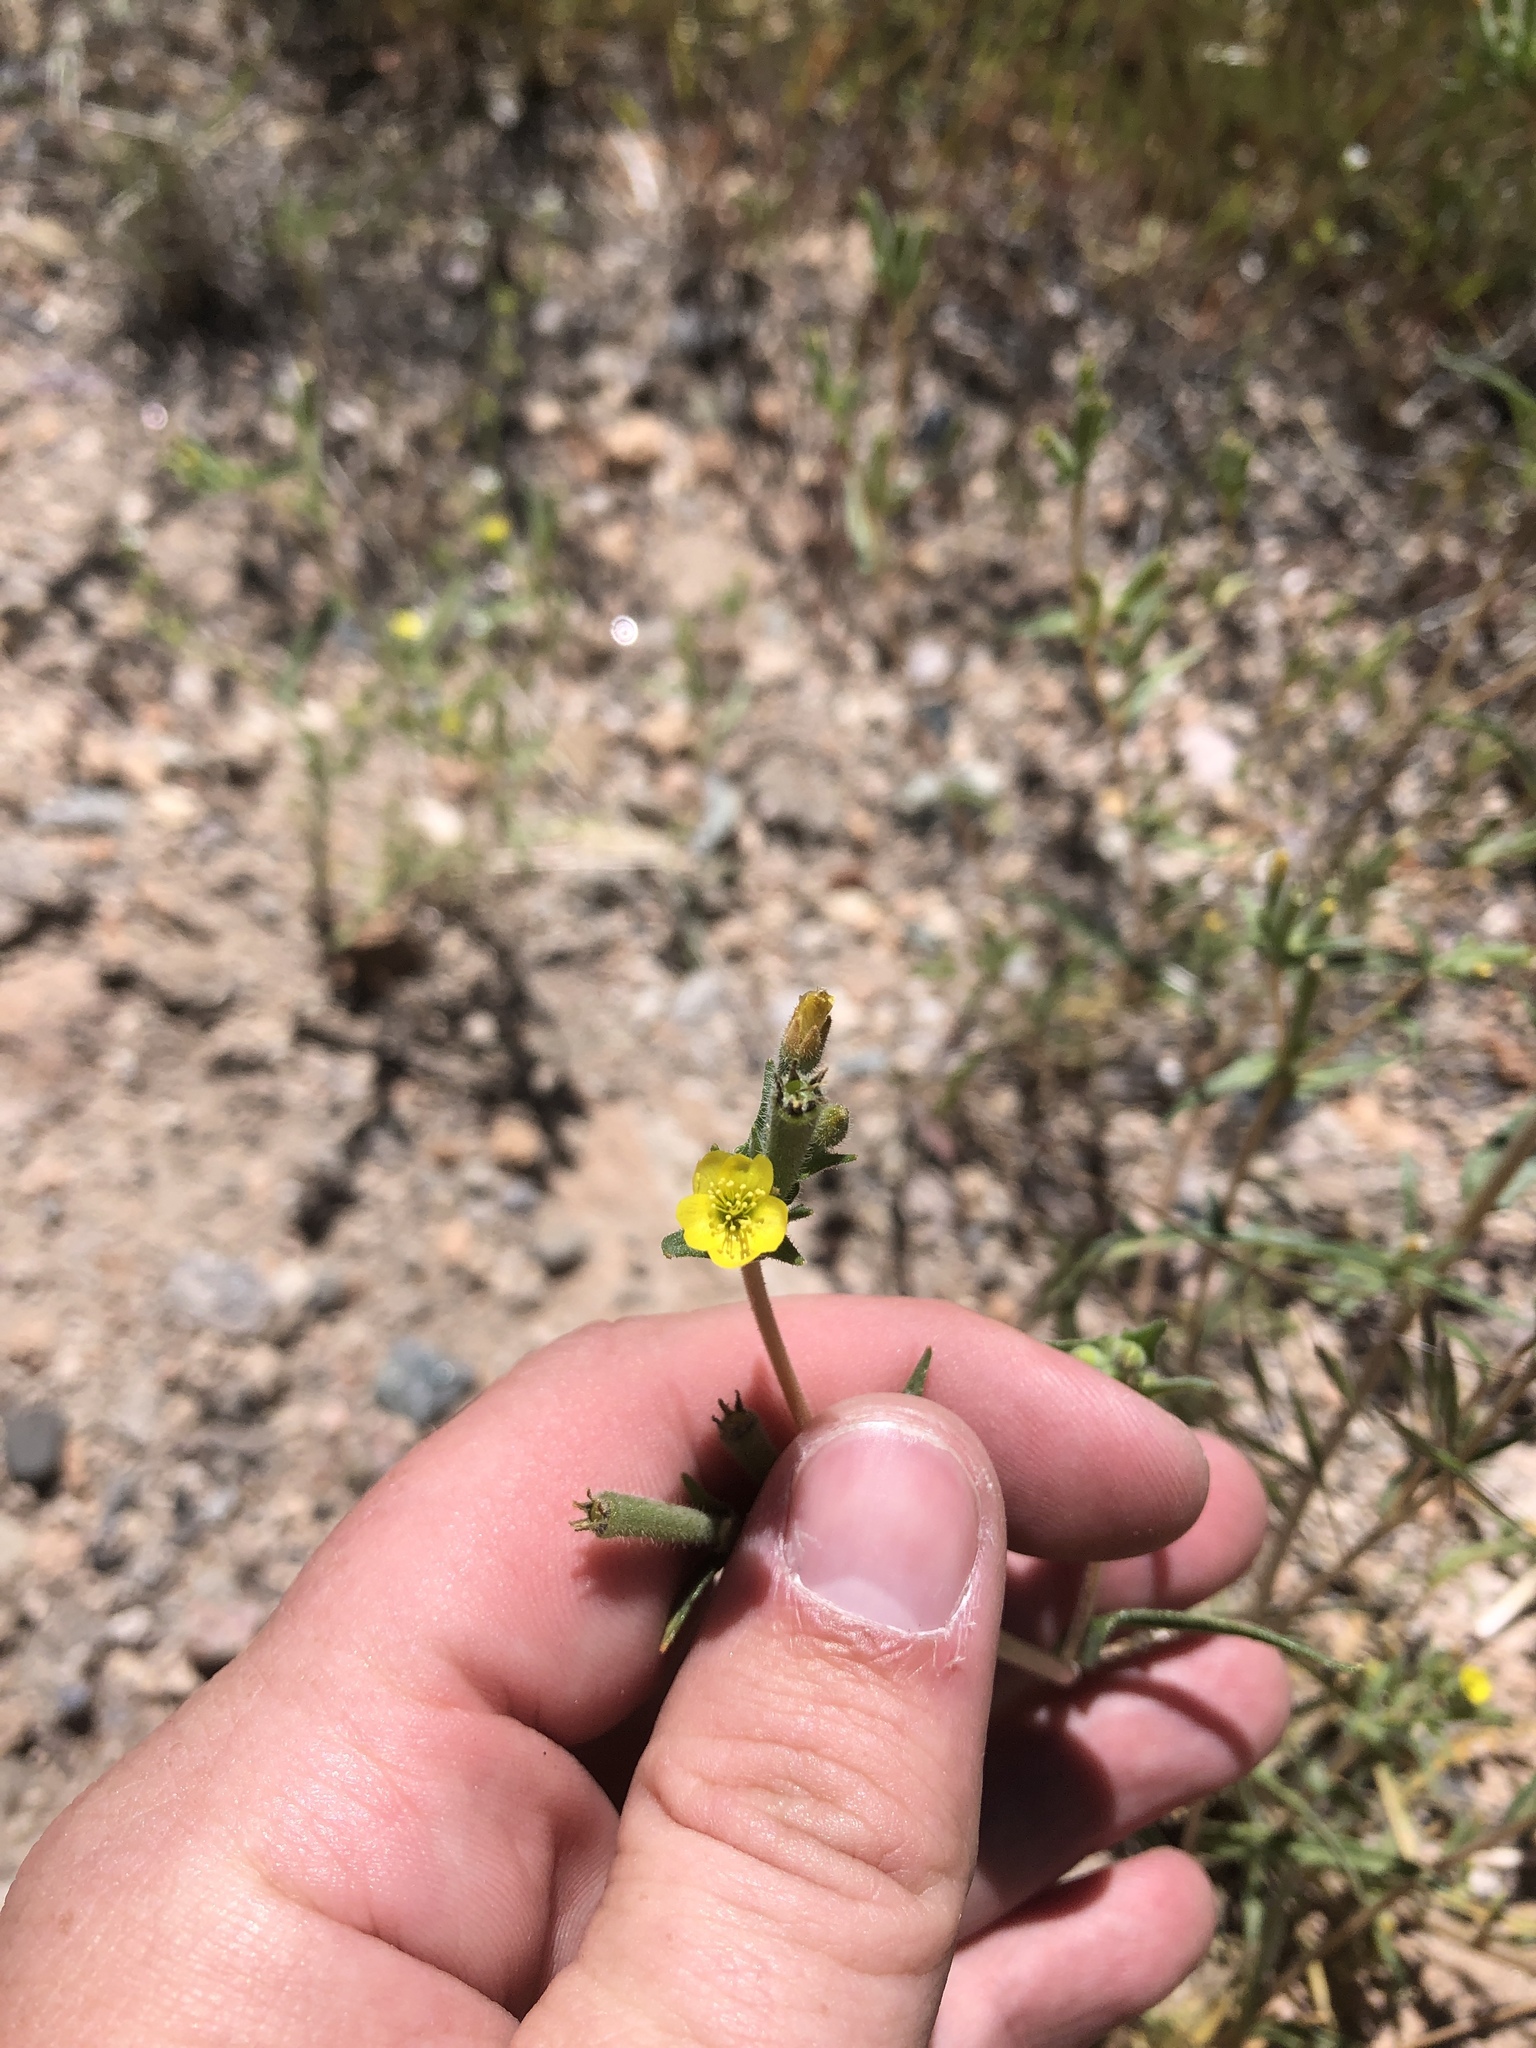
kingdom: Plantae
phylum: Tracheophyta
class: Magnoliopsida
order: Cornales
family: Loasaceae
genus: Mentzelia
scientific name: Mentzelia albicaulis
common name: White-stem blazingstar
